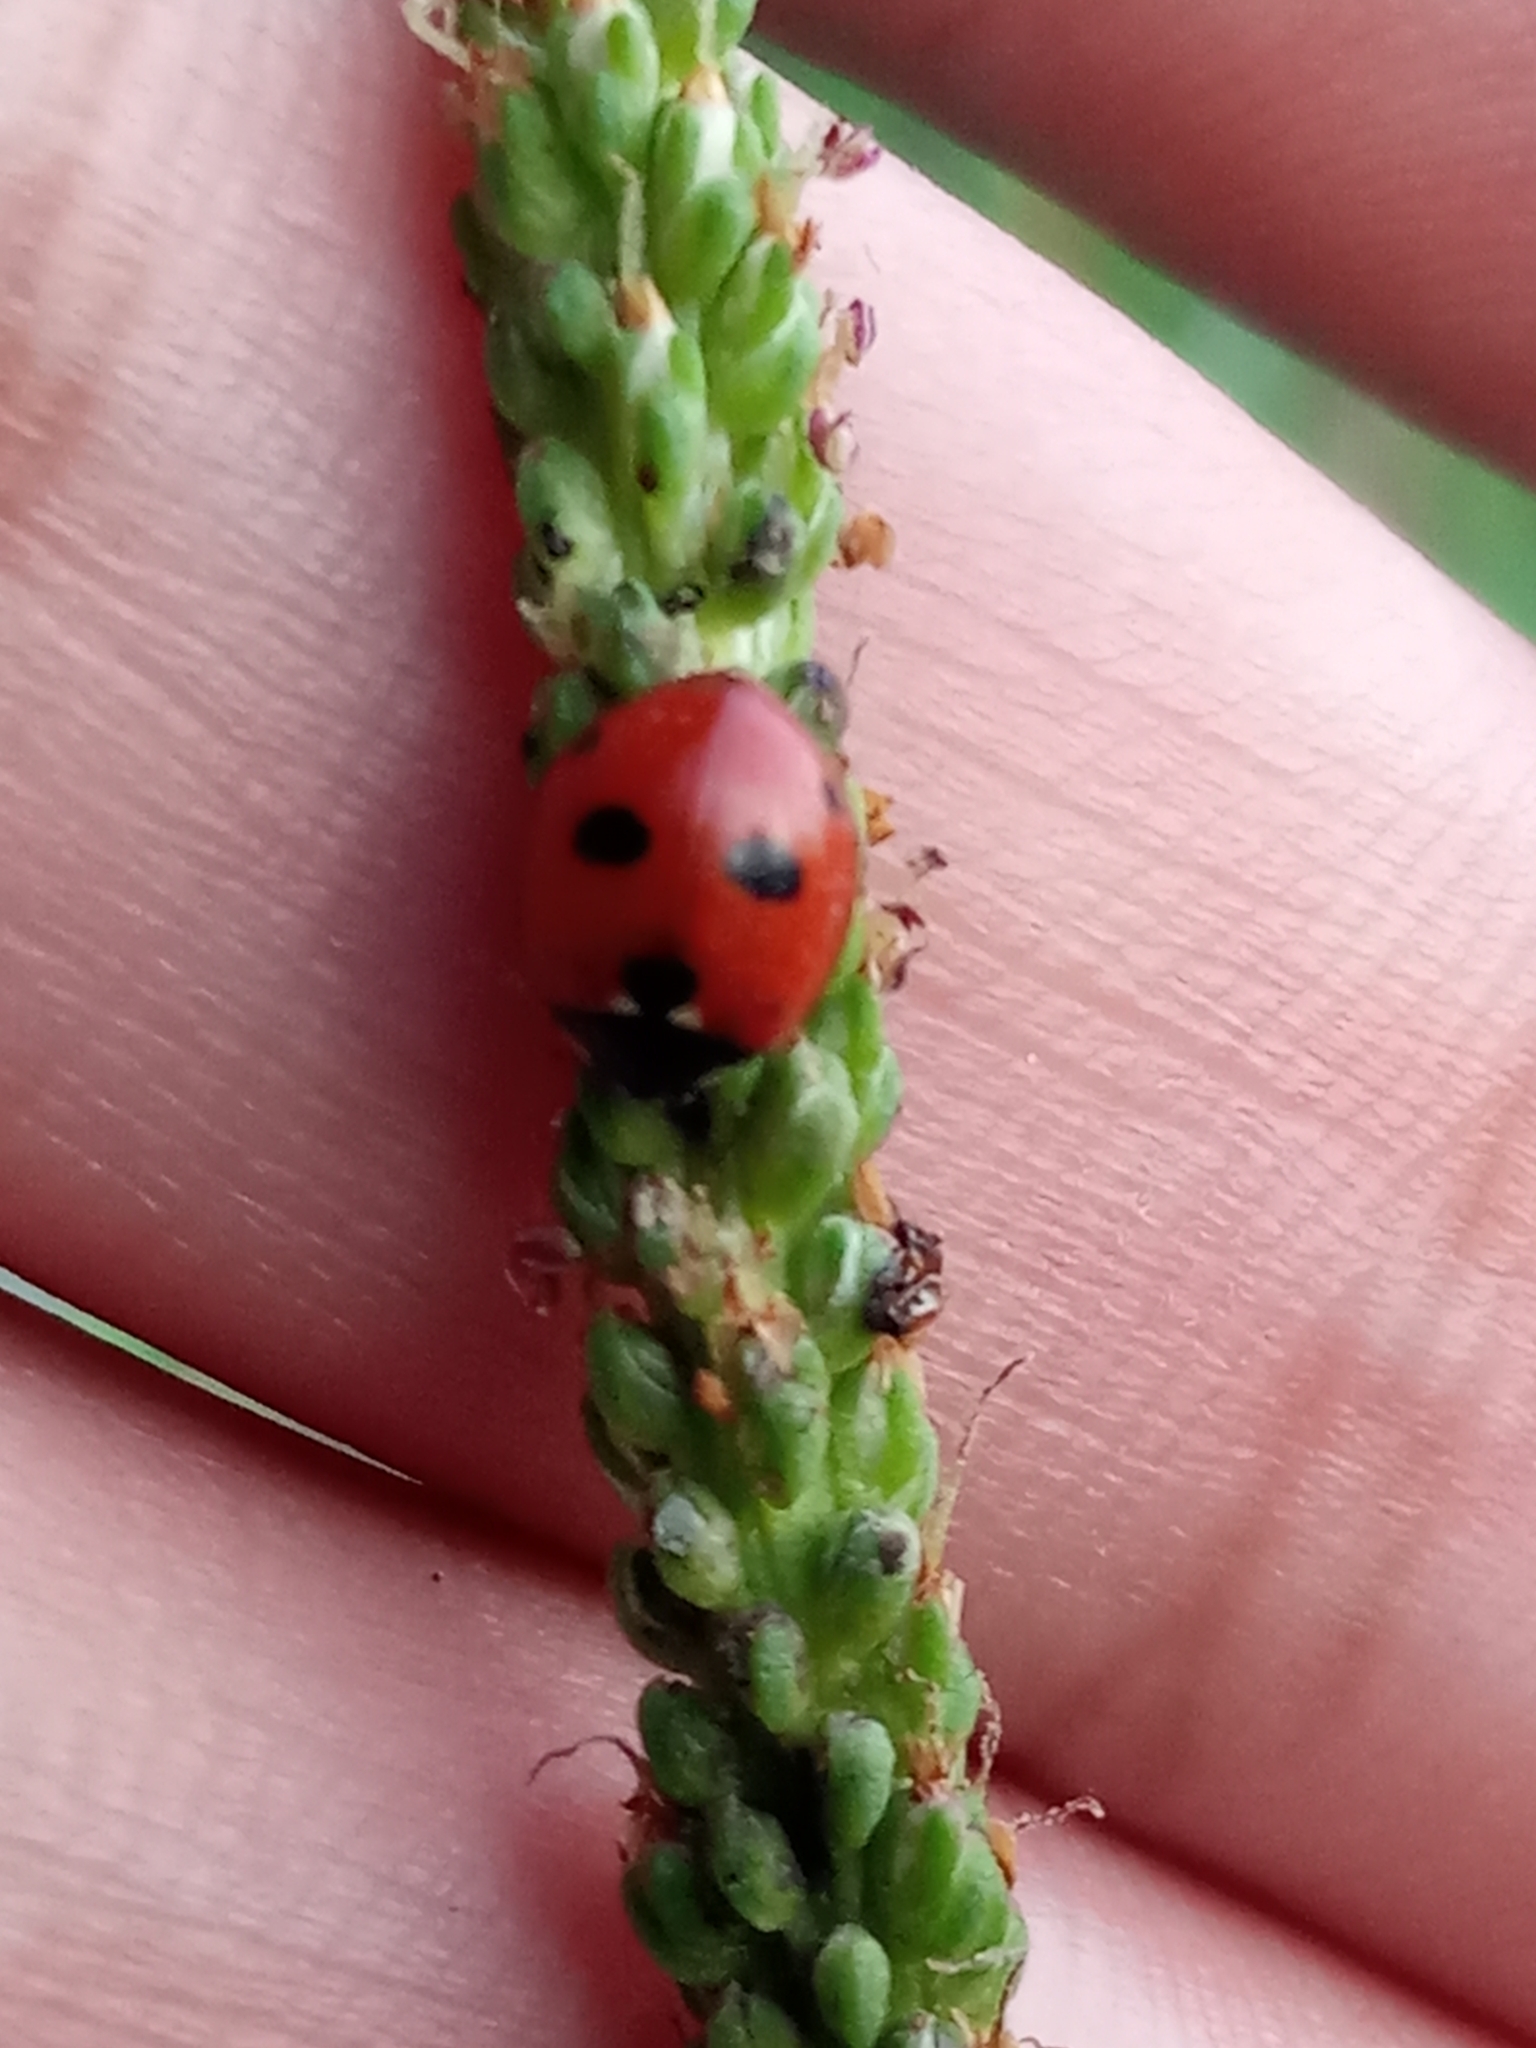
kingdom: Animalia
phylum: Arthropoda
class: Insecta
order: Coleoptera
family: Coccinellidae
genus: Coccinella
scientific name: Coccinella quinquepunctata
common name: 5-spot ladybird
